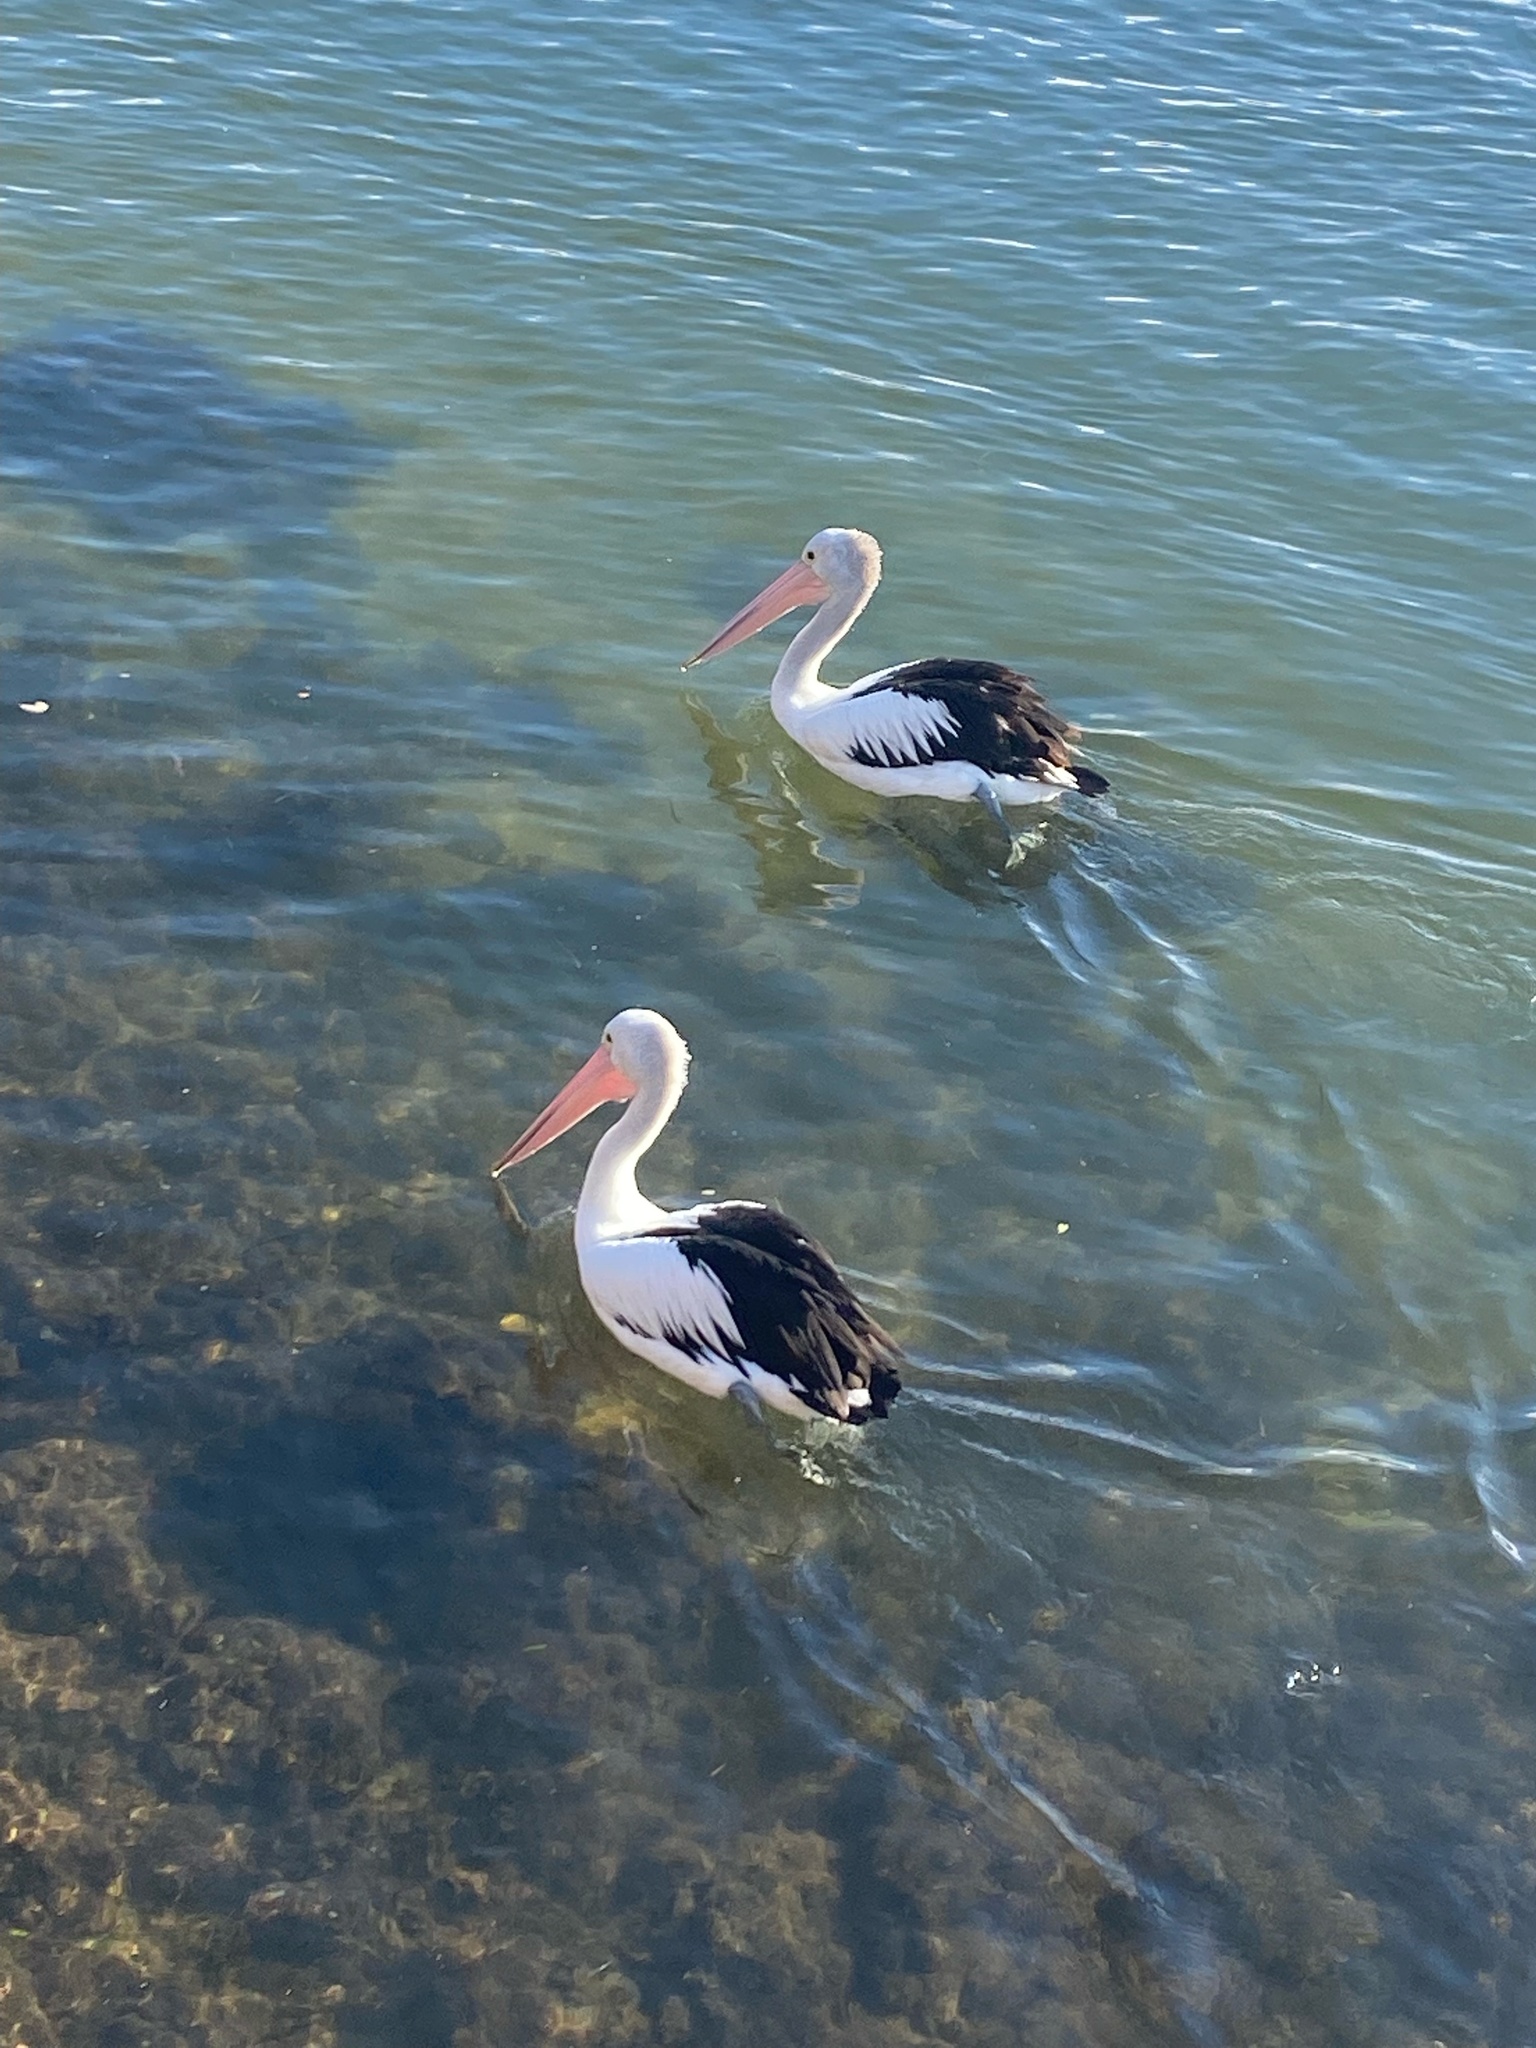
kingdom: Animalia
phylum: Chordata
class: Aves
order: Pelecaniformes
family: Pelecanidae
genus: Pelecanus
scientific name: Pelecanus conspicillatus
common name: Australian pelican
